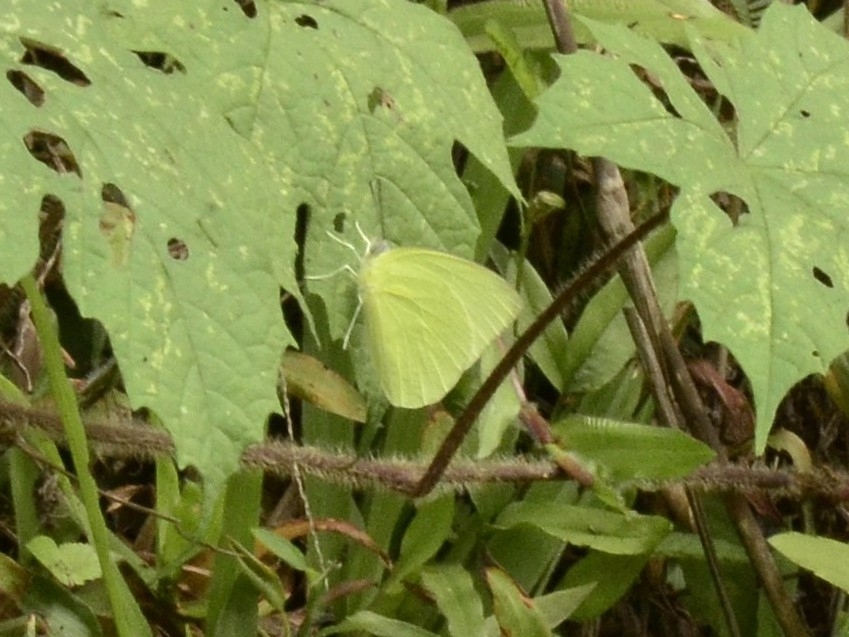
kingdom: Animalia
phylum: Arthropoda
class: Insecta
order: Lepidoptera
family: Pieridae
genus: Catopsilia
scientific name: Catopsilia pomona
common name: Common emigrant
